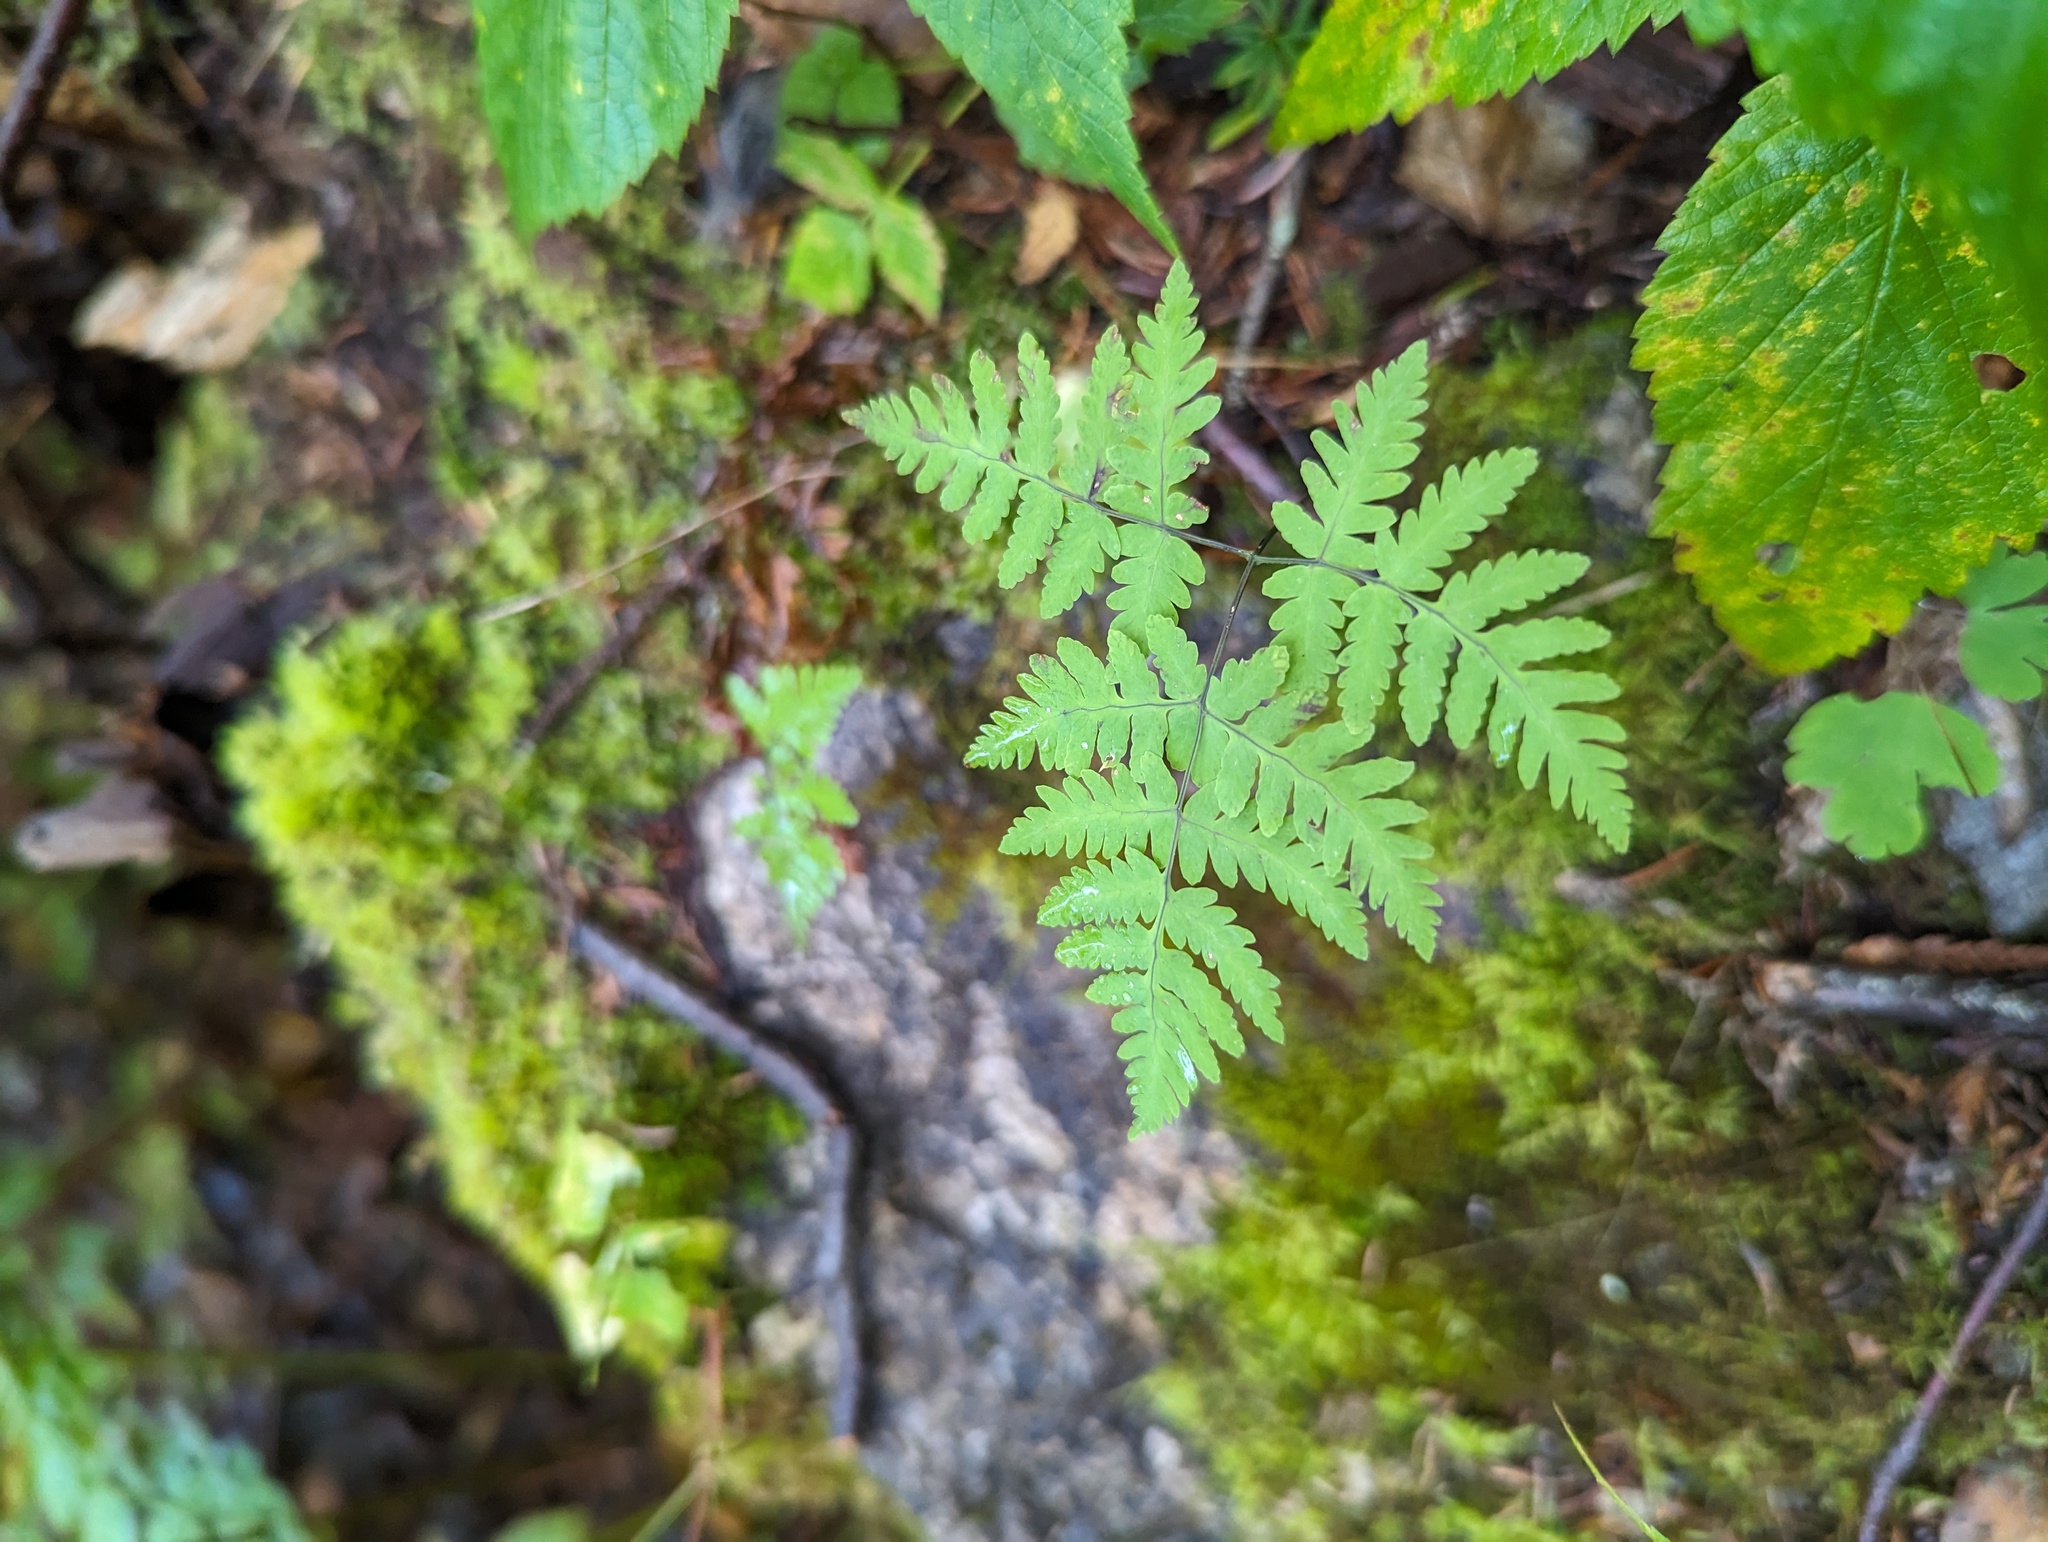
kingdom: Plantae
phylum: Tracheophyta
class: Polypodiopsida
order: Polypodiales
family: Cystopteridaceae
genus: Gymnocarpium
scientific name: Gymnocarpium dryopteris
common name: Oak fern
